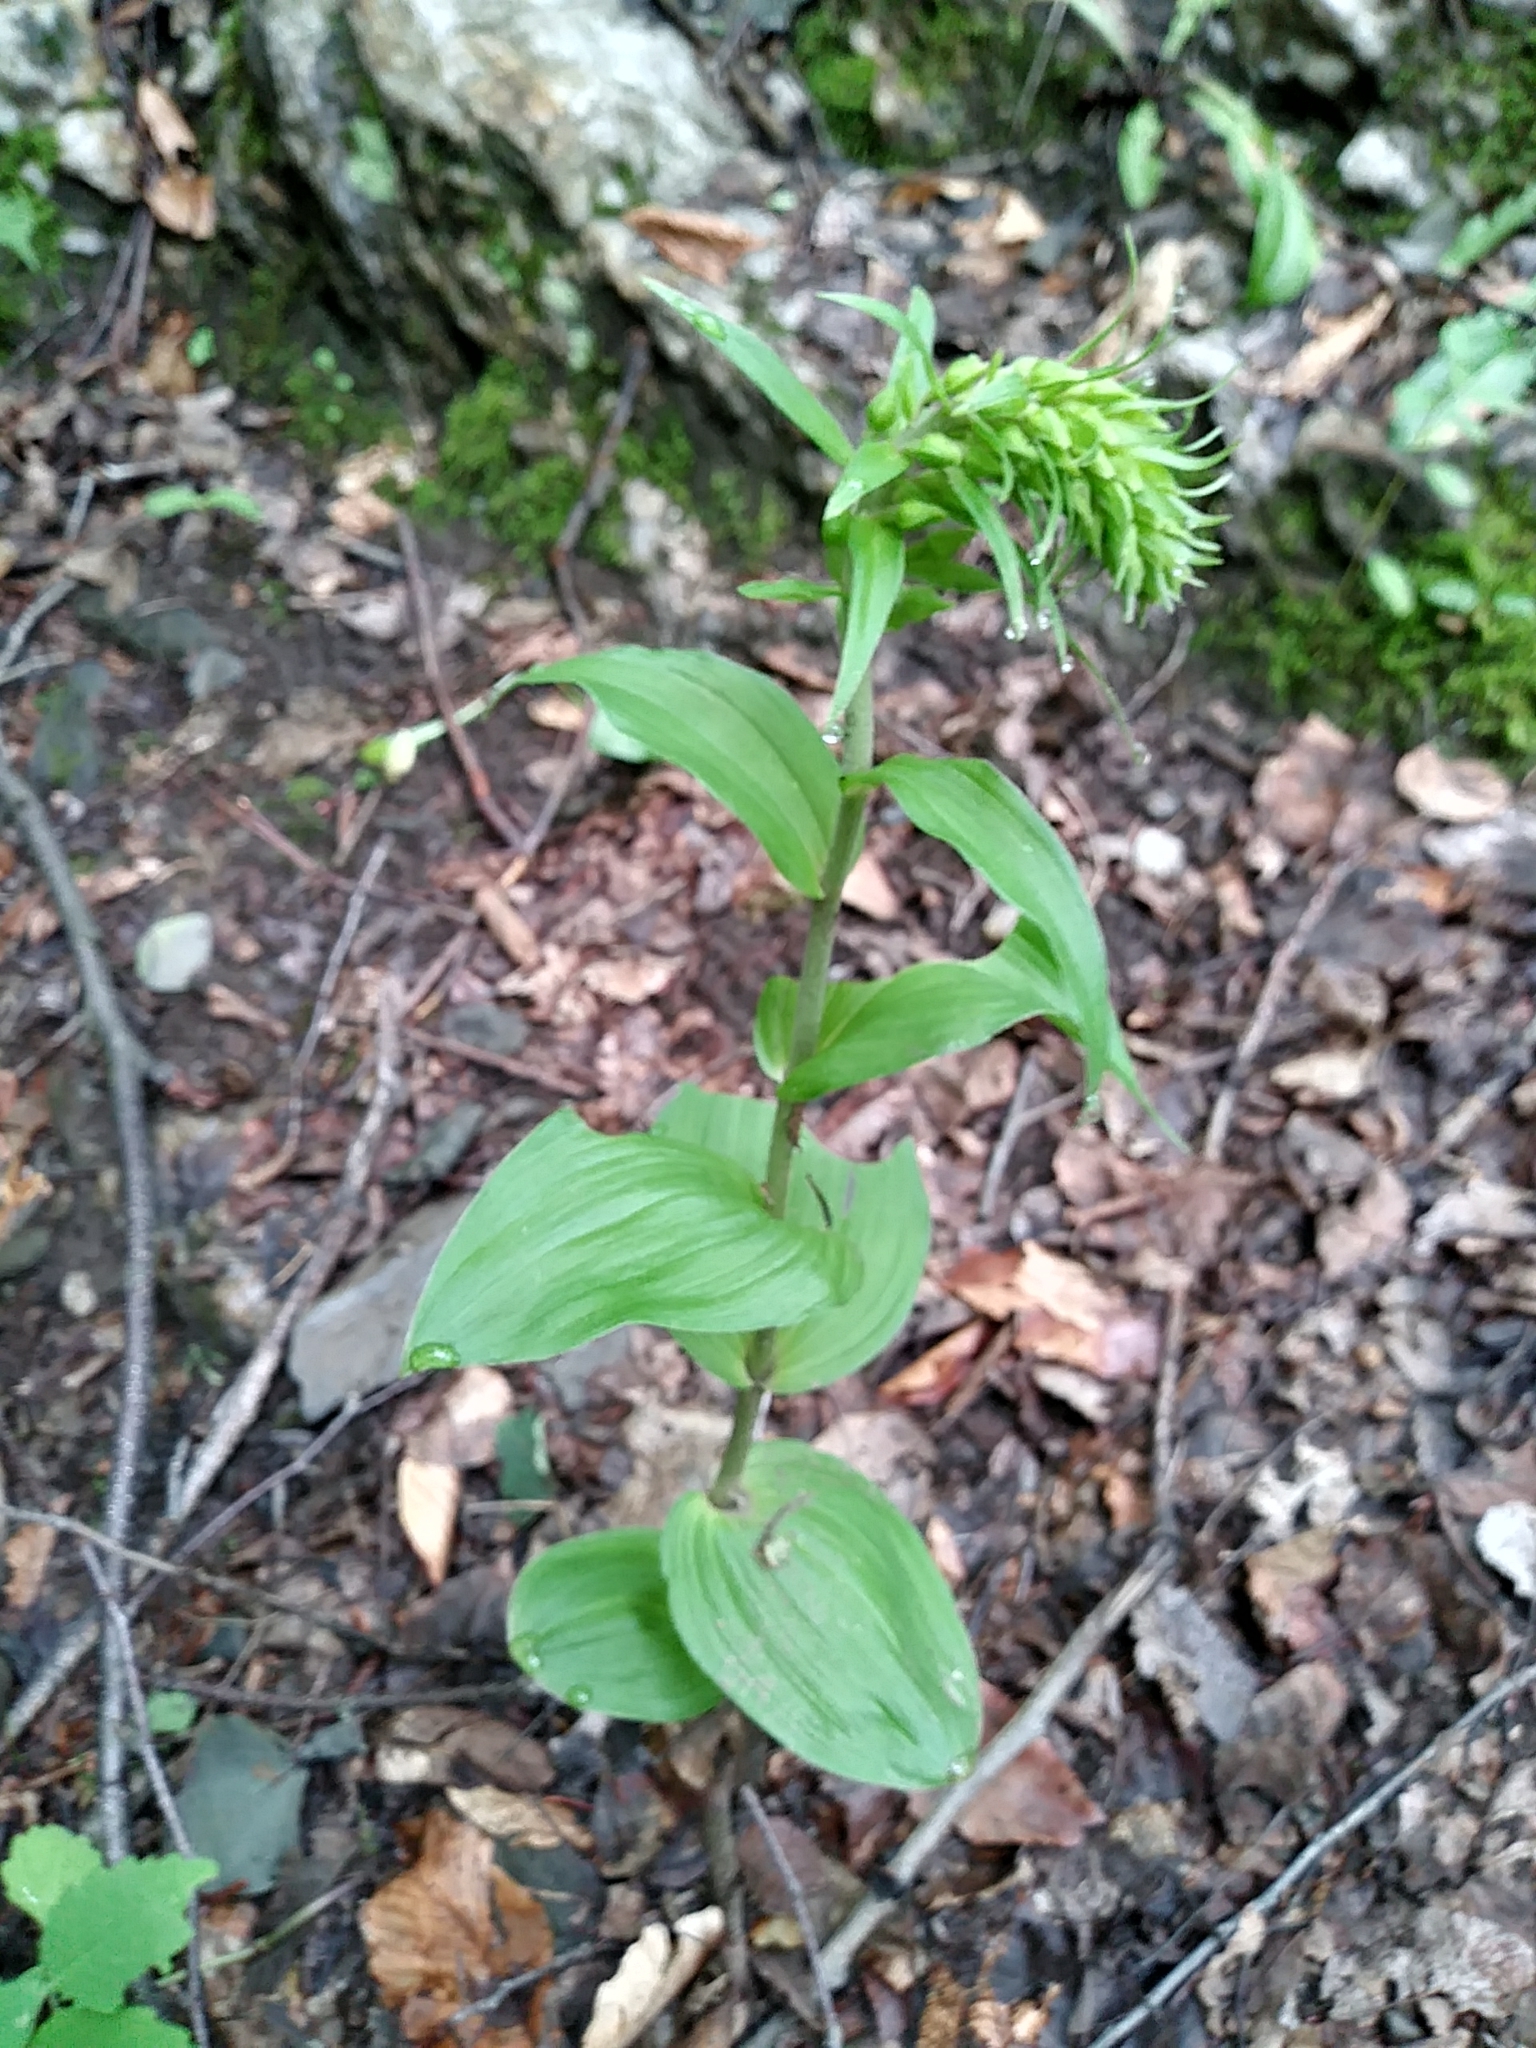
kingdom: Plantae
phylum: Tracheophyta
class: Liliopsida
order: Asparagales
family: Orchidaceae
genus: Epipactis
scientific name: Epipactis helleborine
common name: Broad-leaved helleborine
